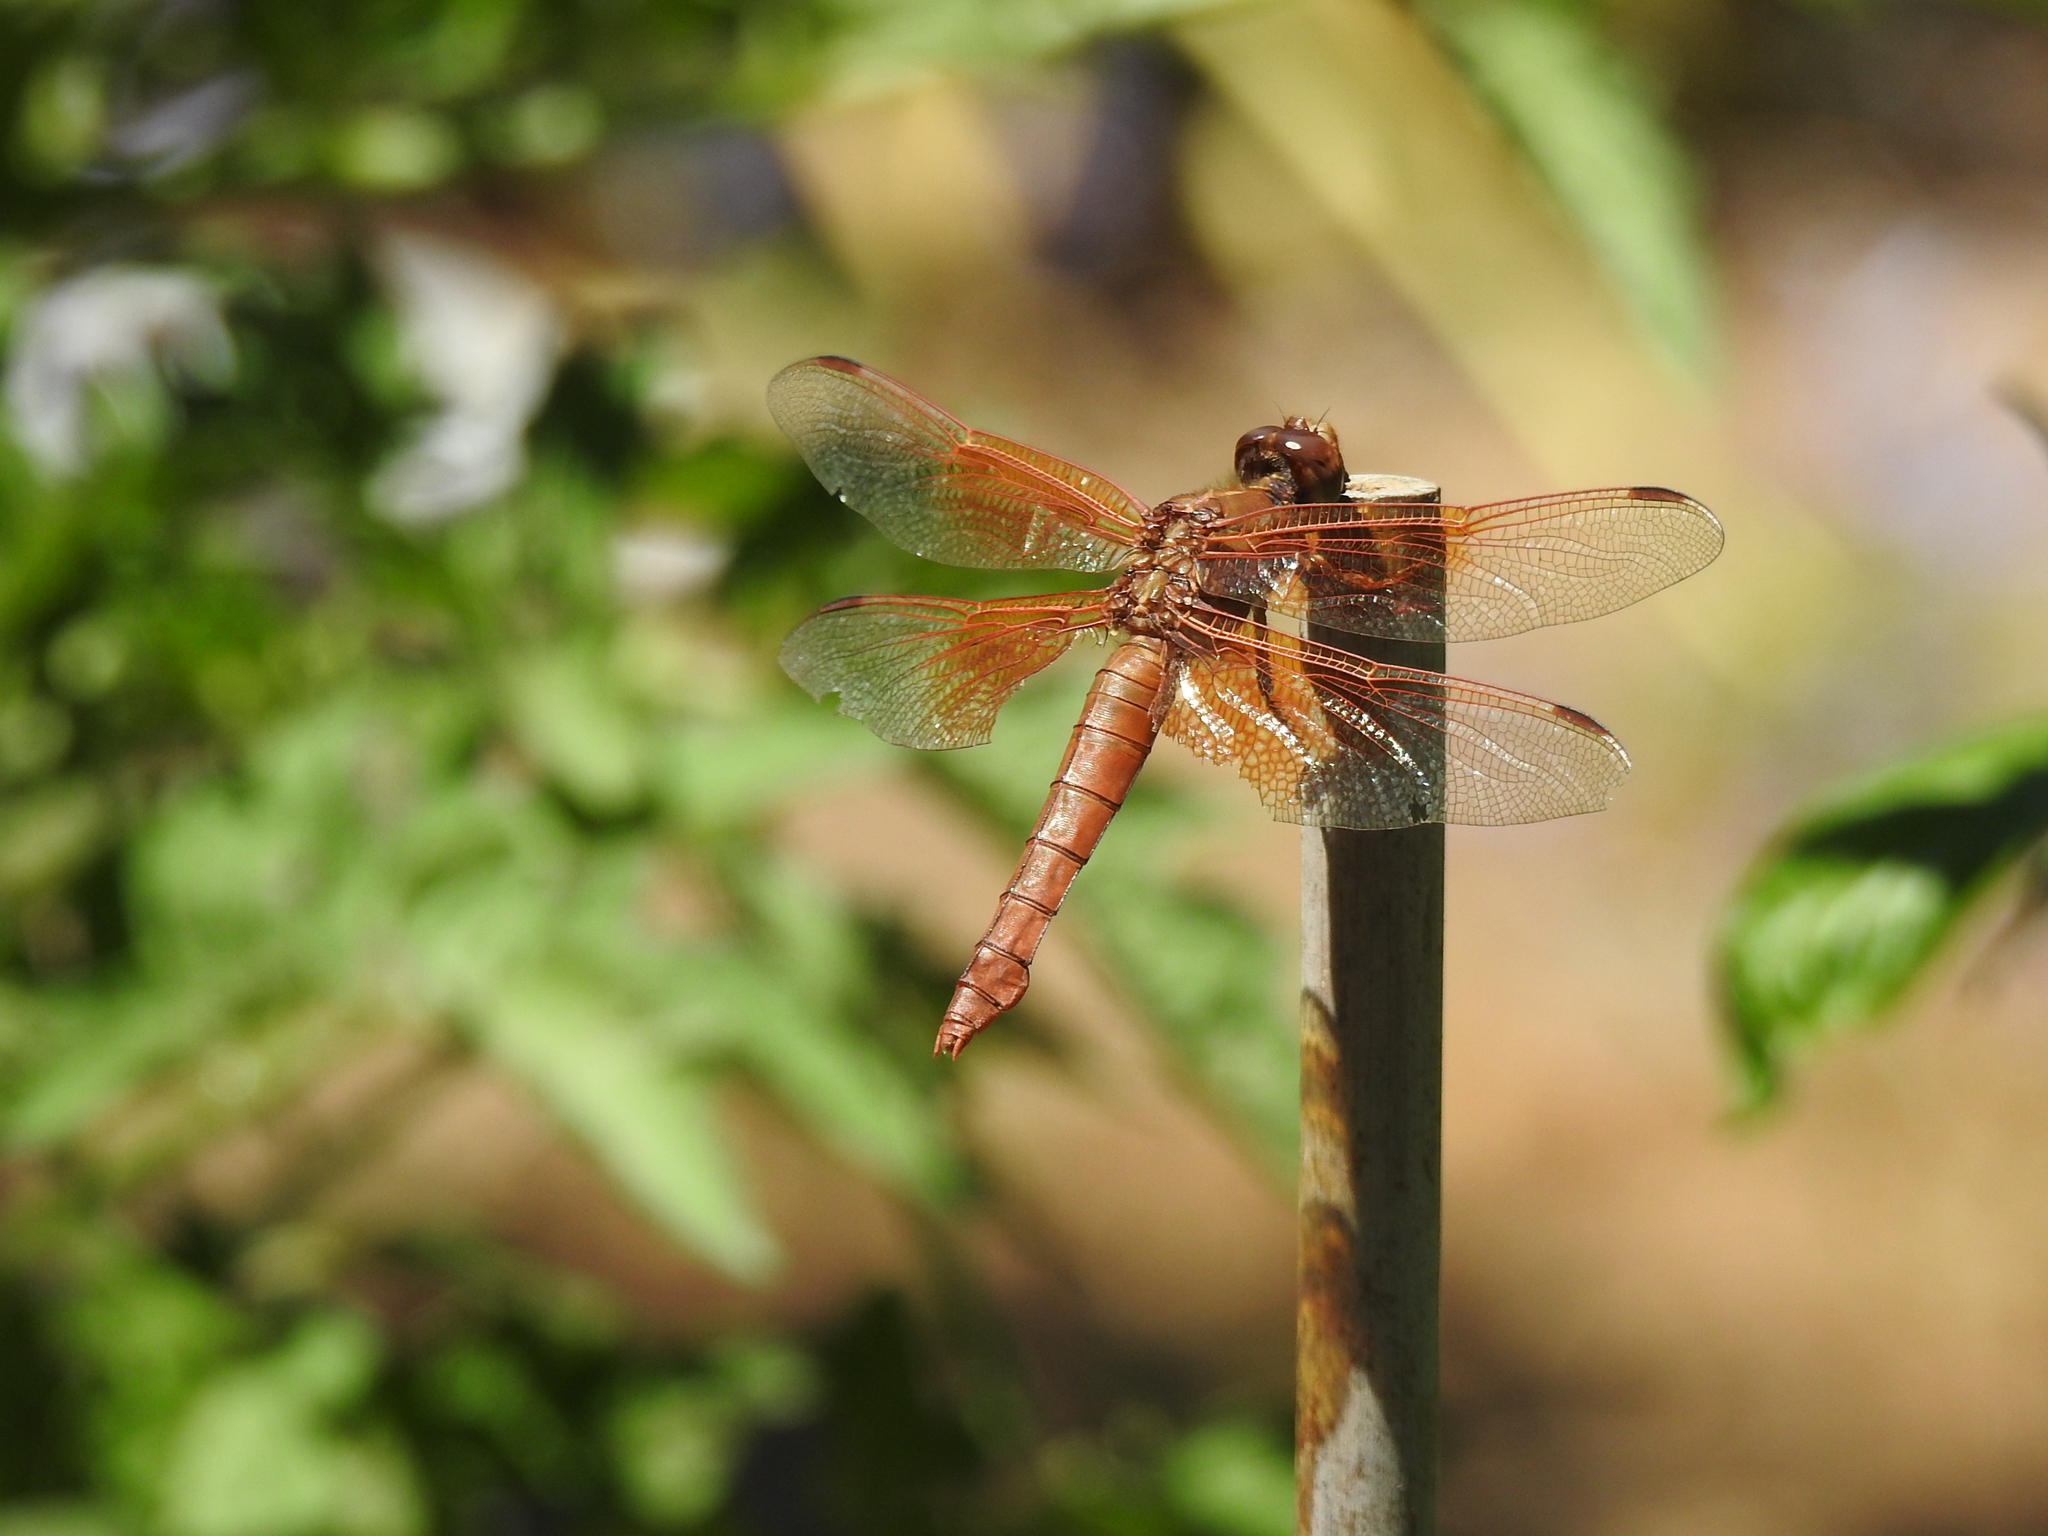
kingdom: Animalia
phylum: Arthropoda
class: Insecta
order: Odonata
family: Libellulidae
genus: Libellula
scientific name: Libellula saturata
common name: Flame skimmer
